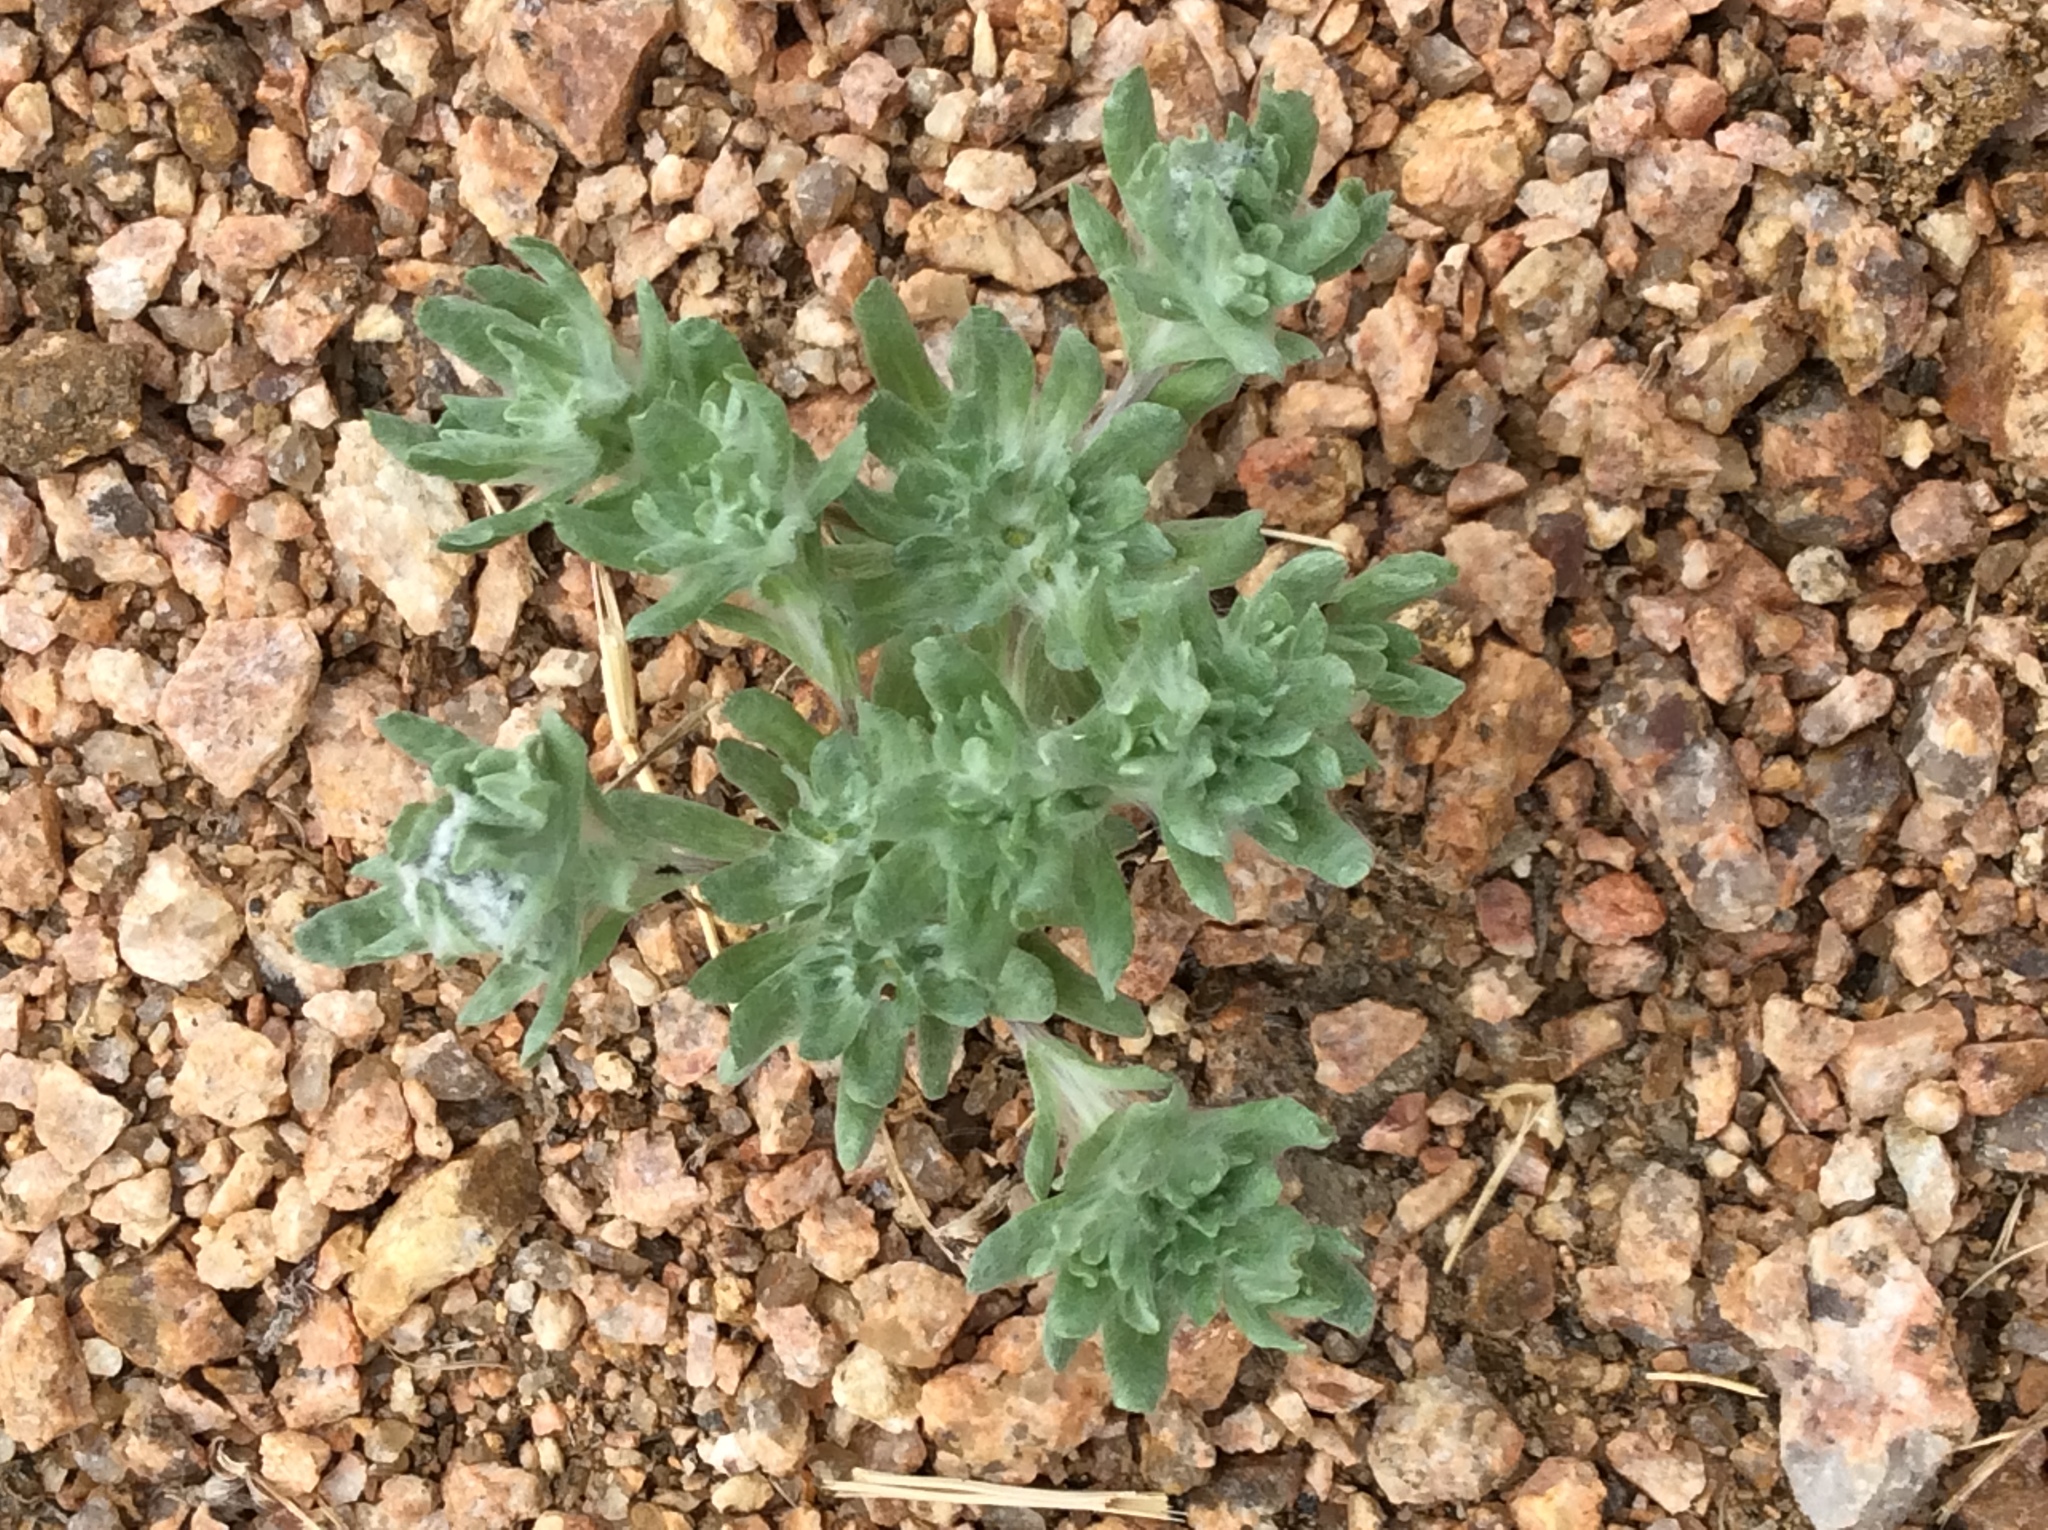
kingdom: Plantae
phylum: Tracheophyta
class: Magnoliopsida
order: Asterales
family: Asteraceae
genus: Diaperia
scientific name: Diaperia prolifera
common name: Big-head rabbit-tobacco
